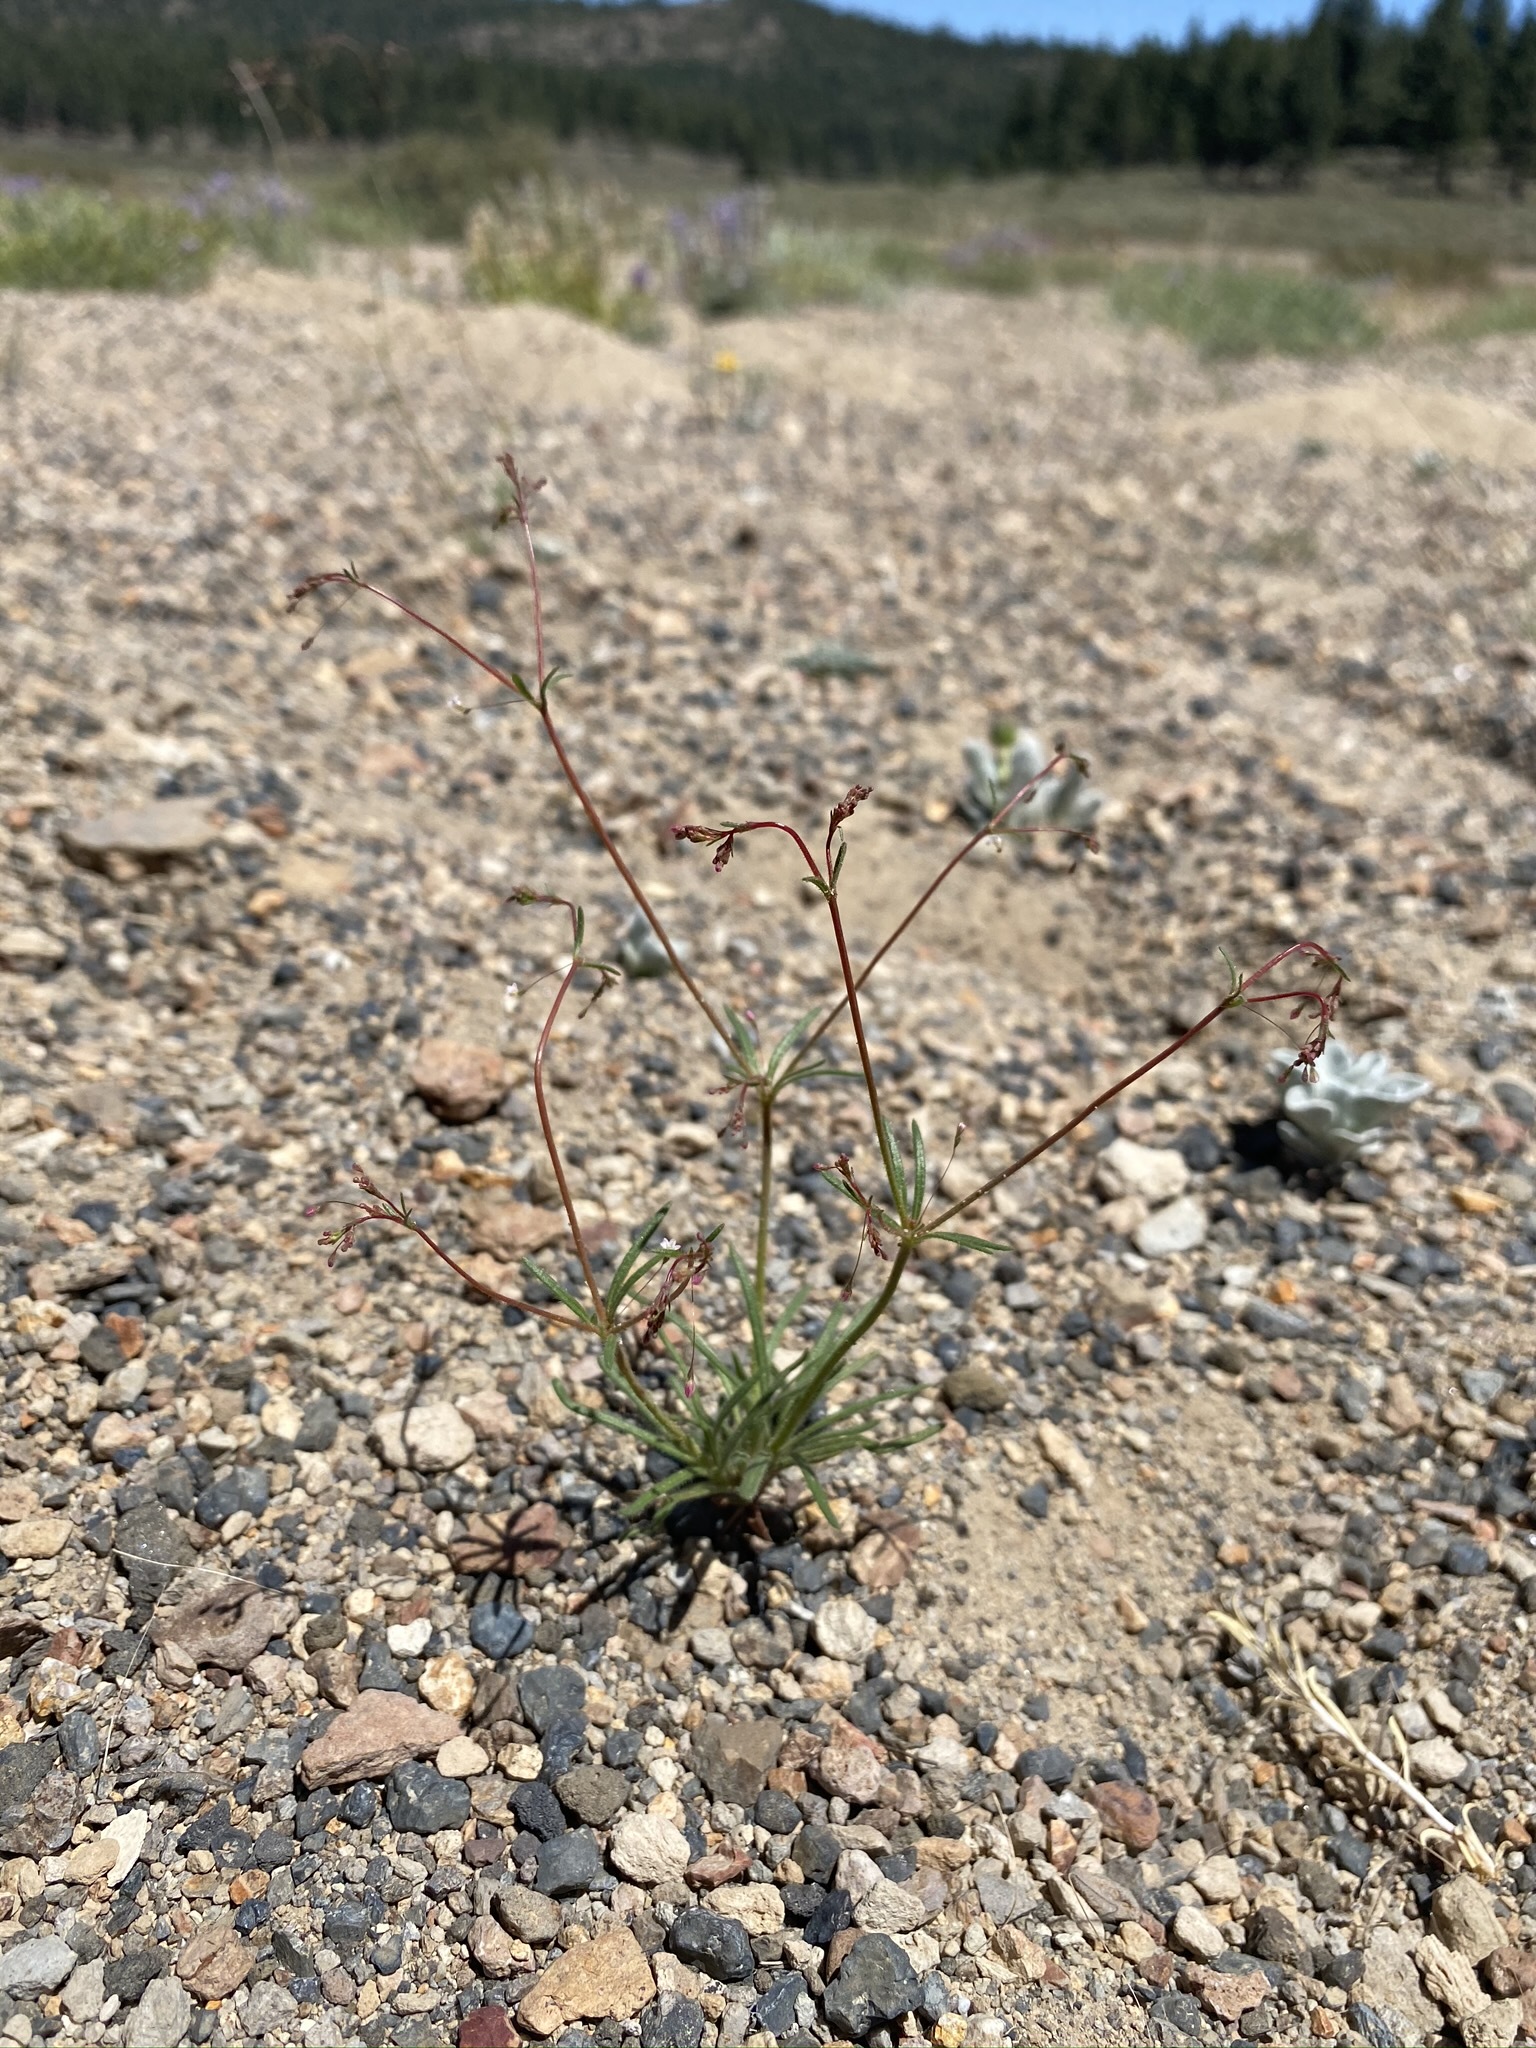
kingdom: Plantae
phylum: Tracheophyta
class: Magnoliopsida
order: Caryophyllales
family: Polygonaceae
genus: Eriogonum
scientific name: Eriogonum spergulinum
